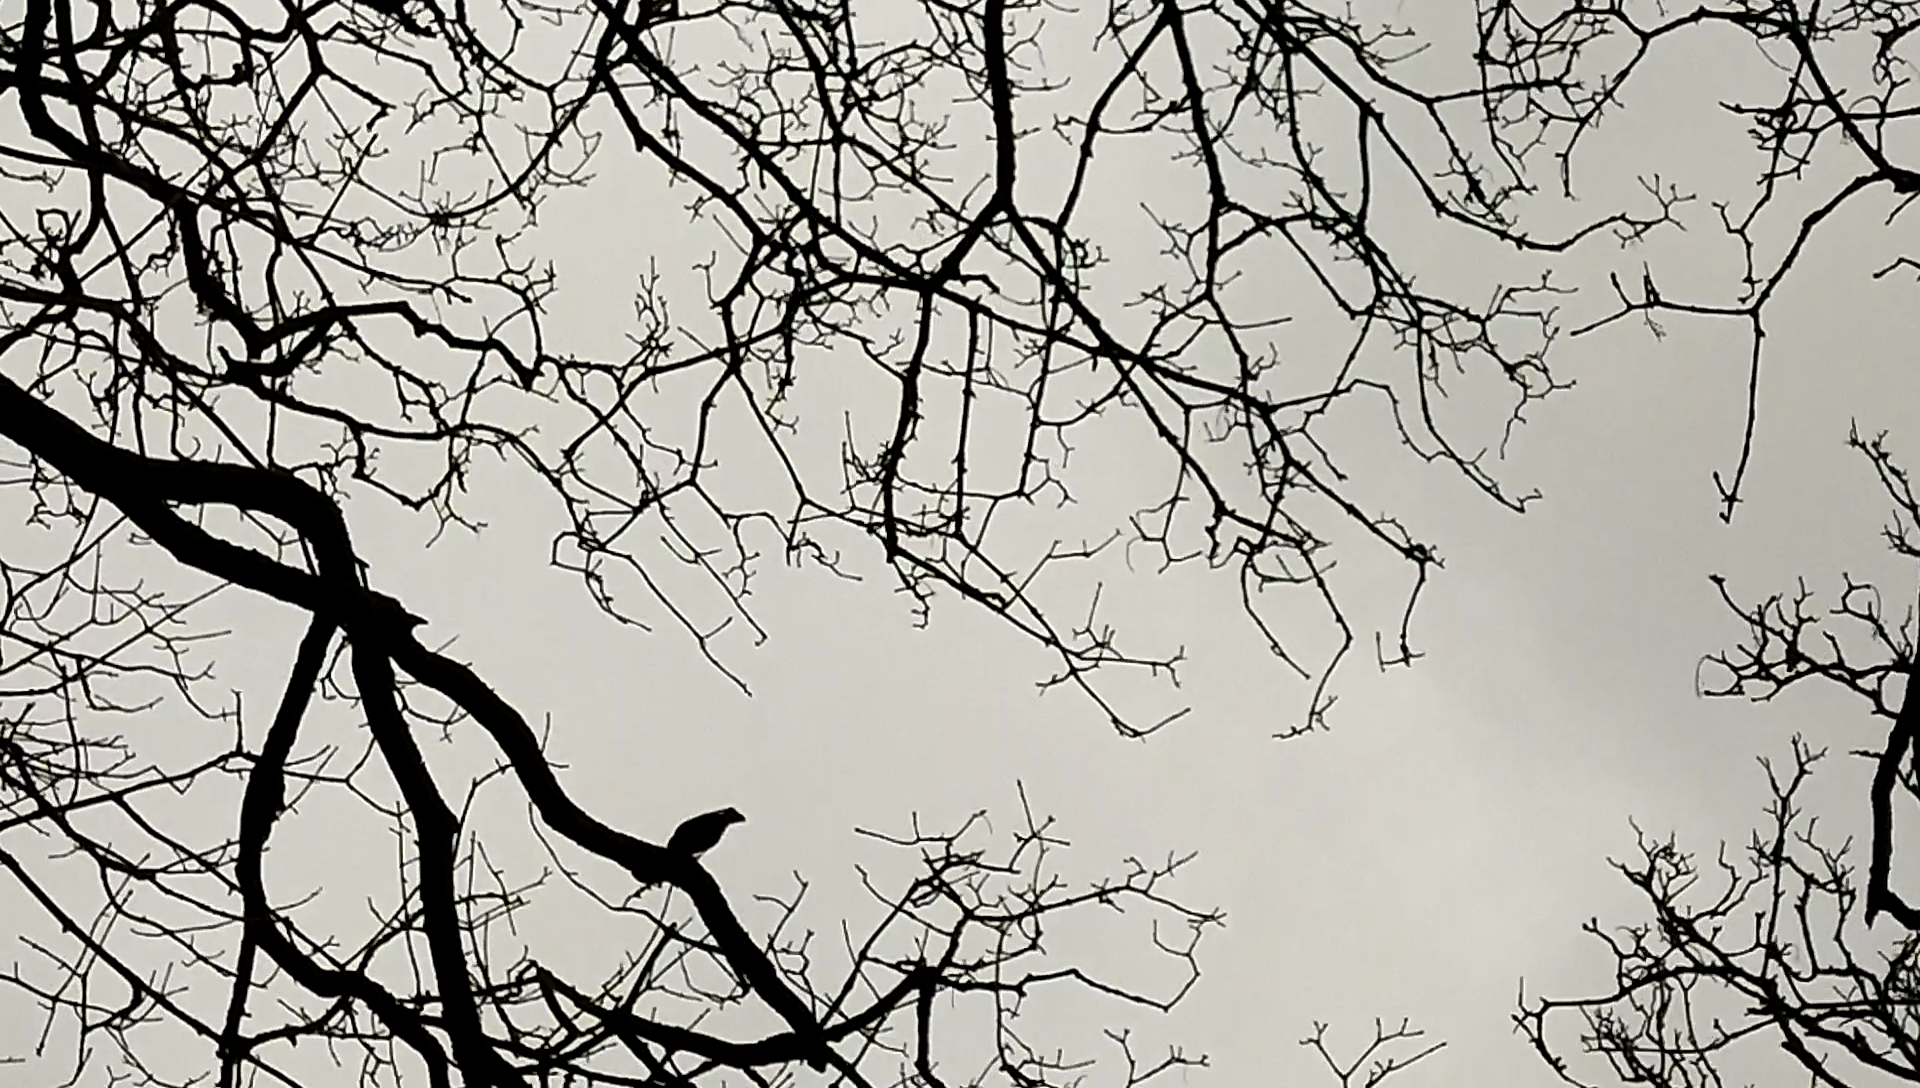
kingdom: Animalia
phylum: Chordata
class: Aves
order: Passeriformes
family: Sturnidae
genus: Sturnus
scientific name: Sturnus vulgaris
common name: Common starling
